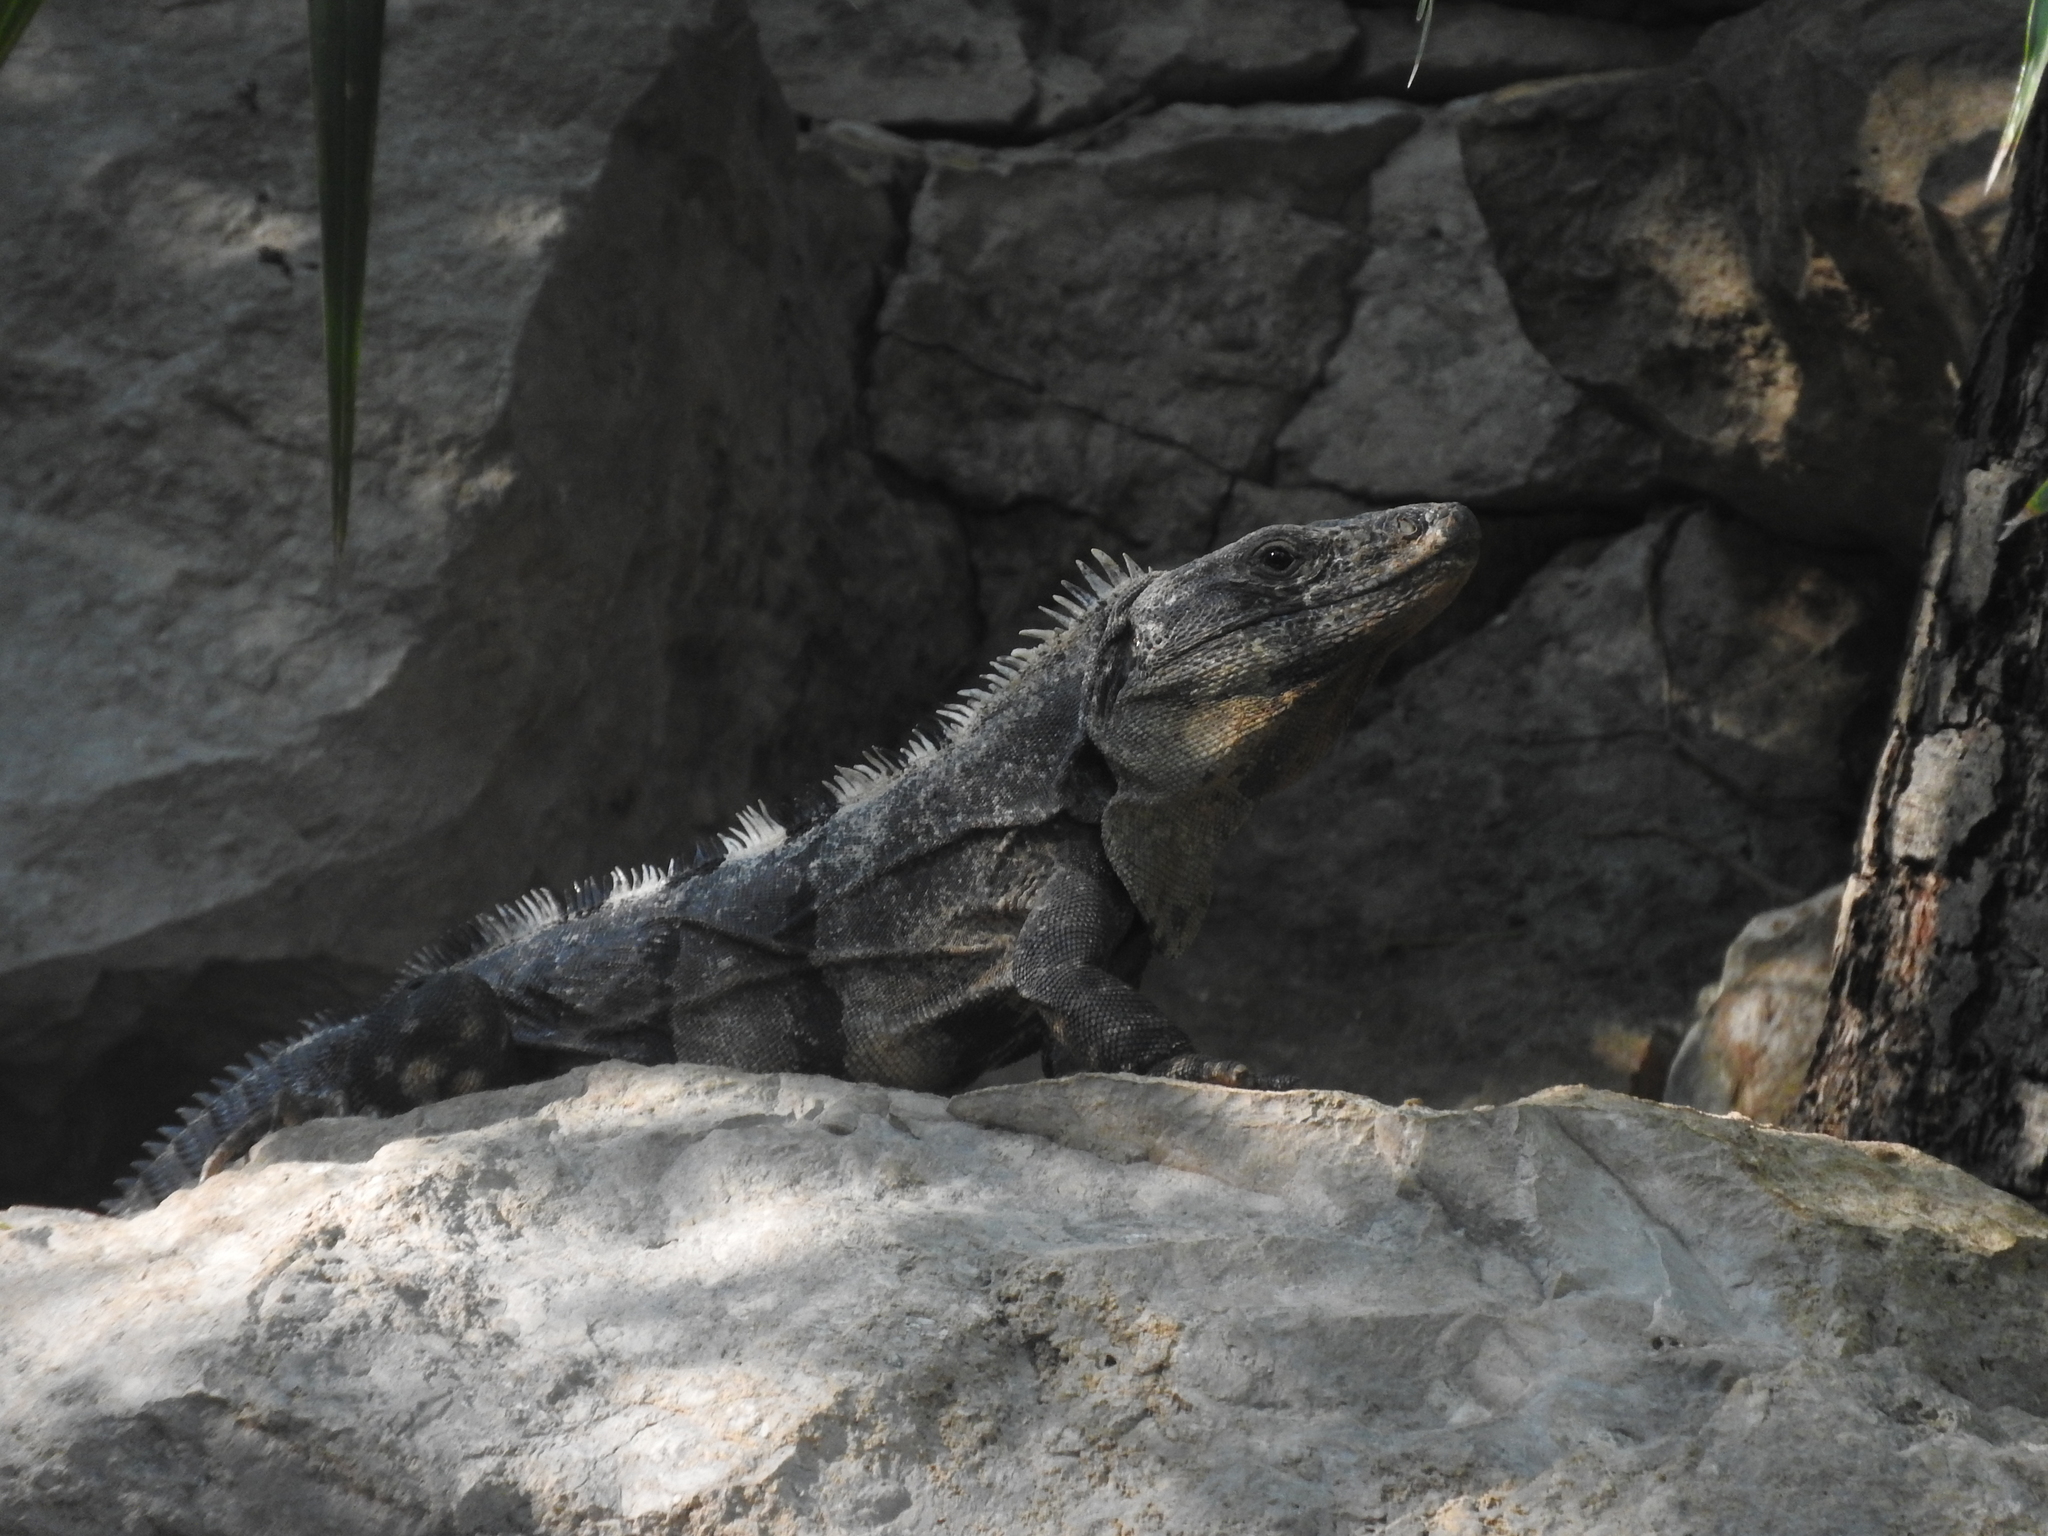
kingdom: Animalia
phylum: Chordata
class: Squamata
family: Iguanidae
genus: Ctenosaura
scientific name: Ctenosaura similis
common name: Black spiny-tailed iguana
